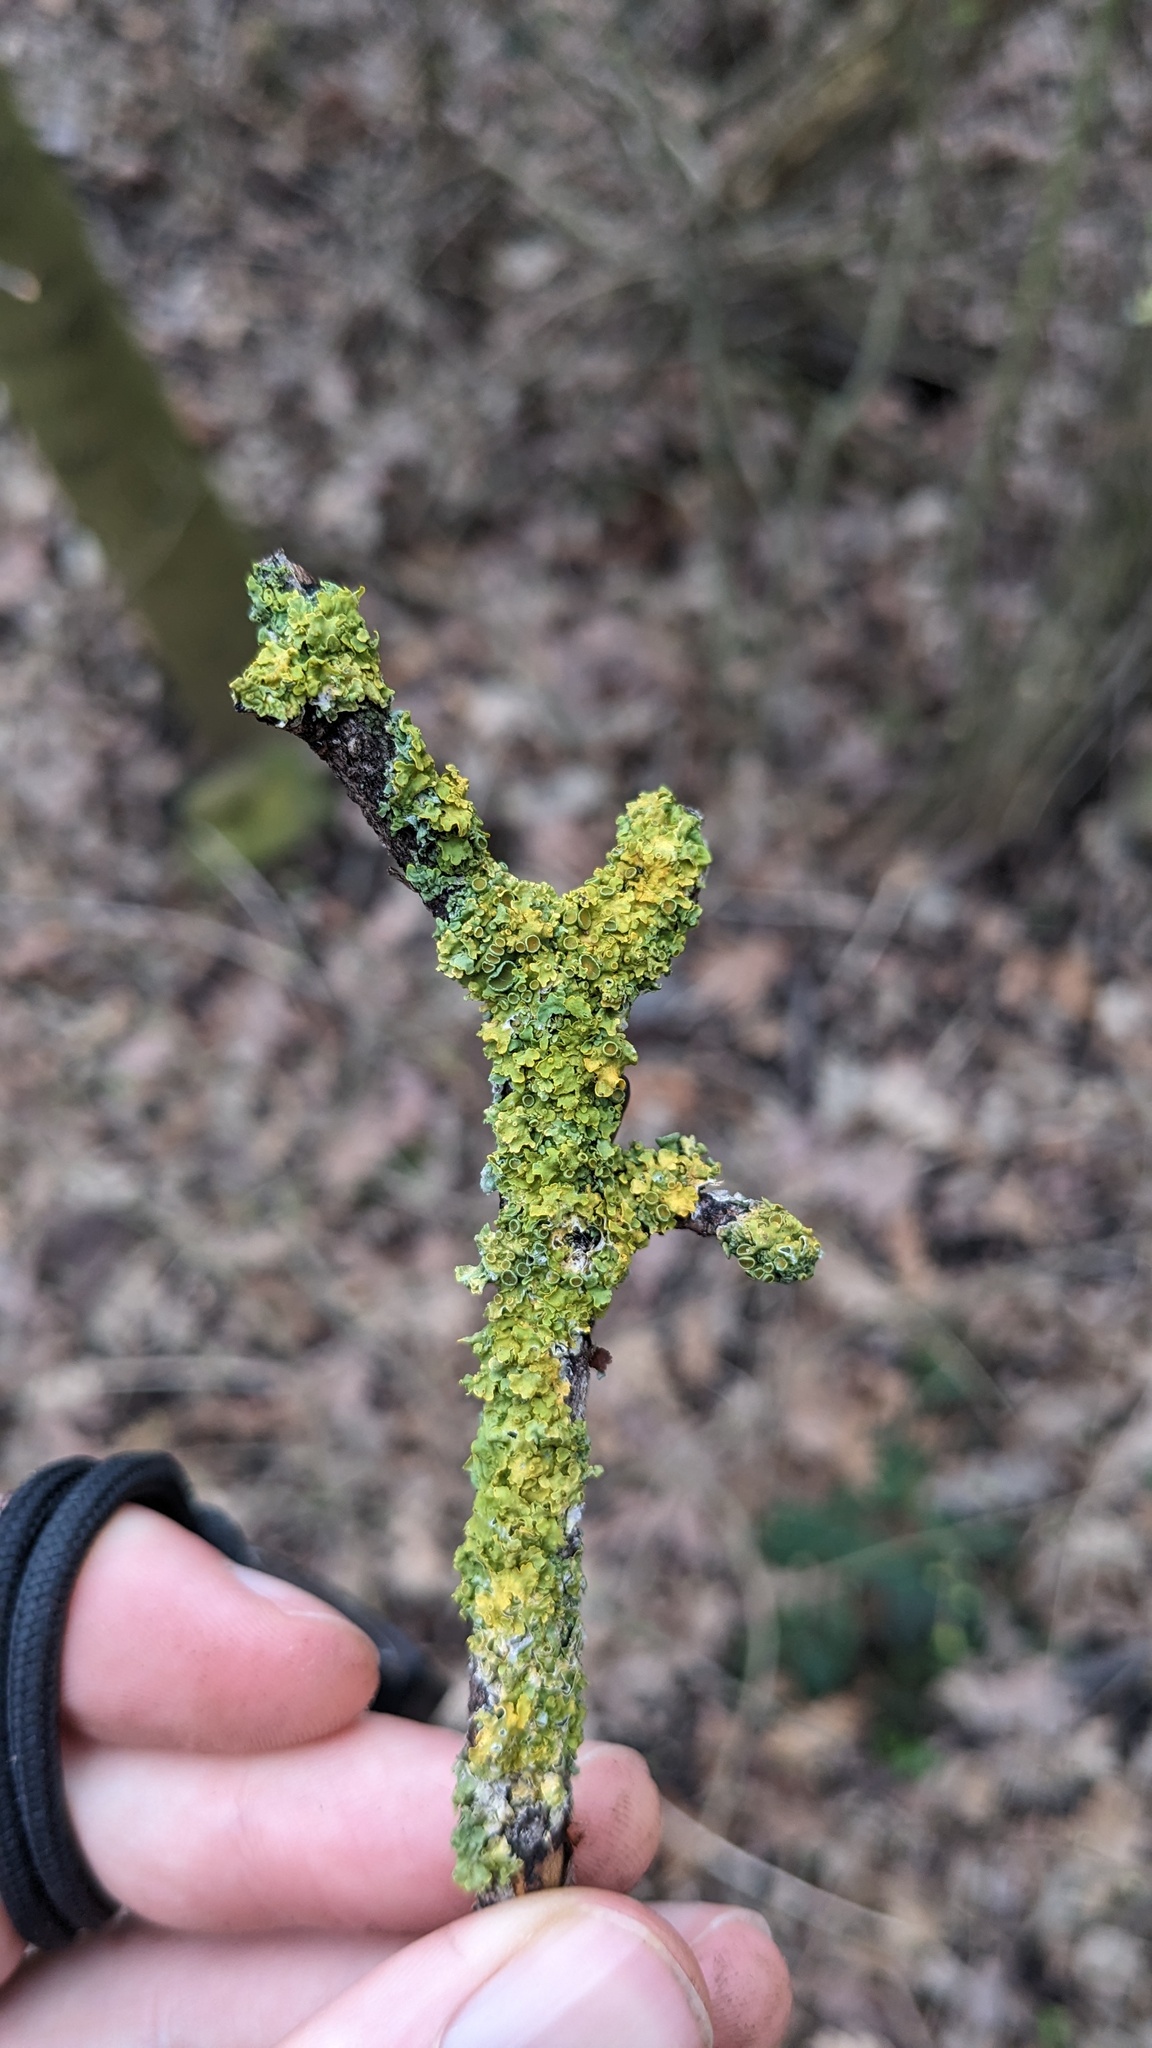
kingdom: Fungi
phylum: Ascomycota
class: Lecanoromycetes
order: Teloschistales
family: Teloschistaceae
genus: Xanthoria
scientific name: Xanthoria parietina
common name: Common orange lichen
